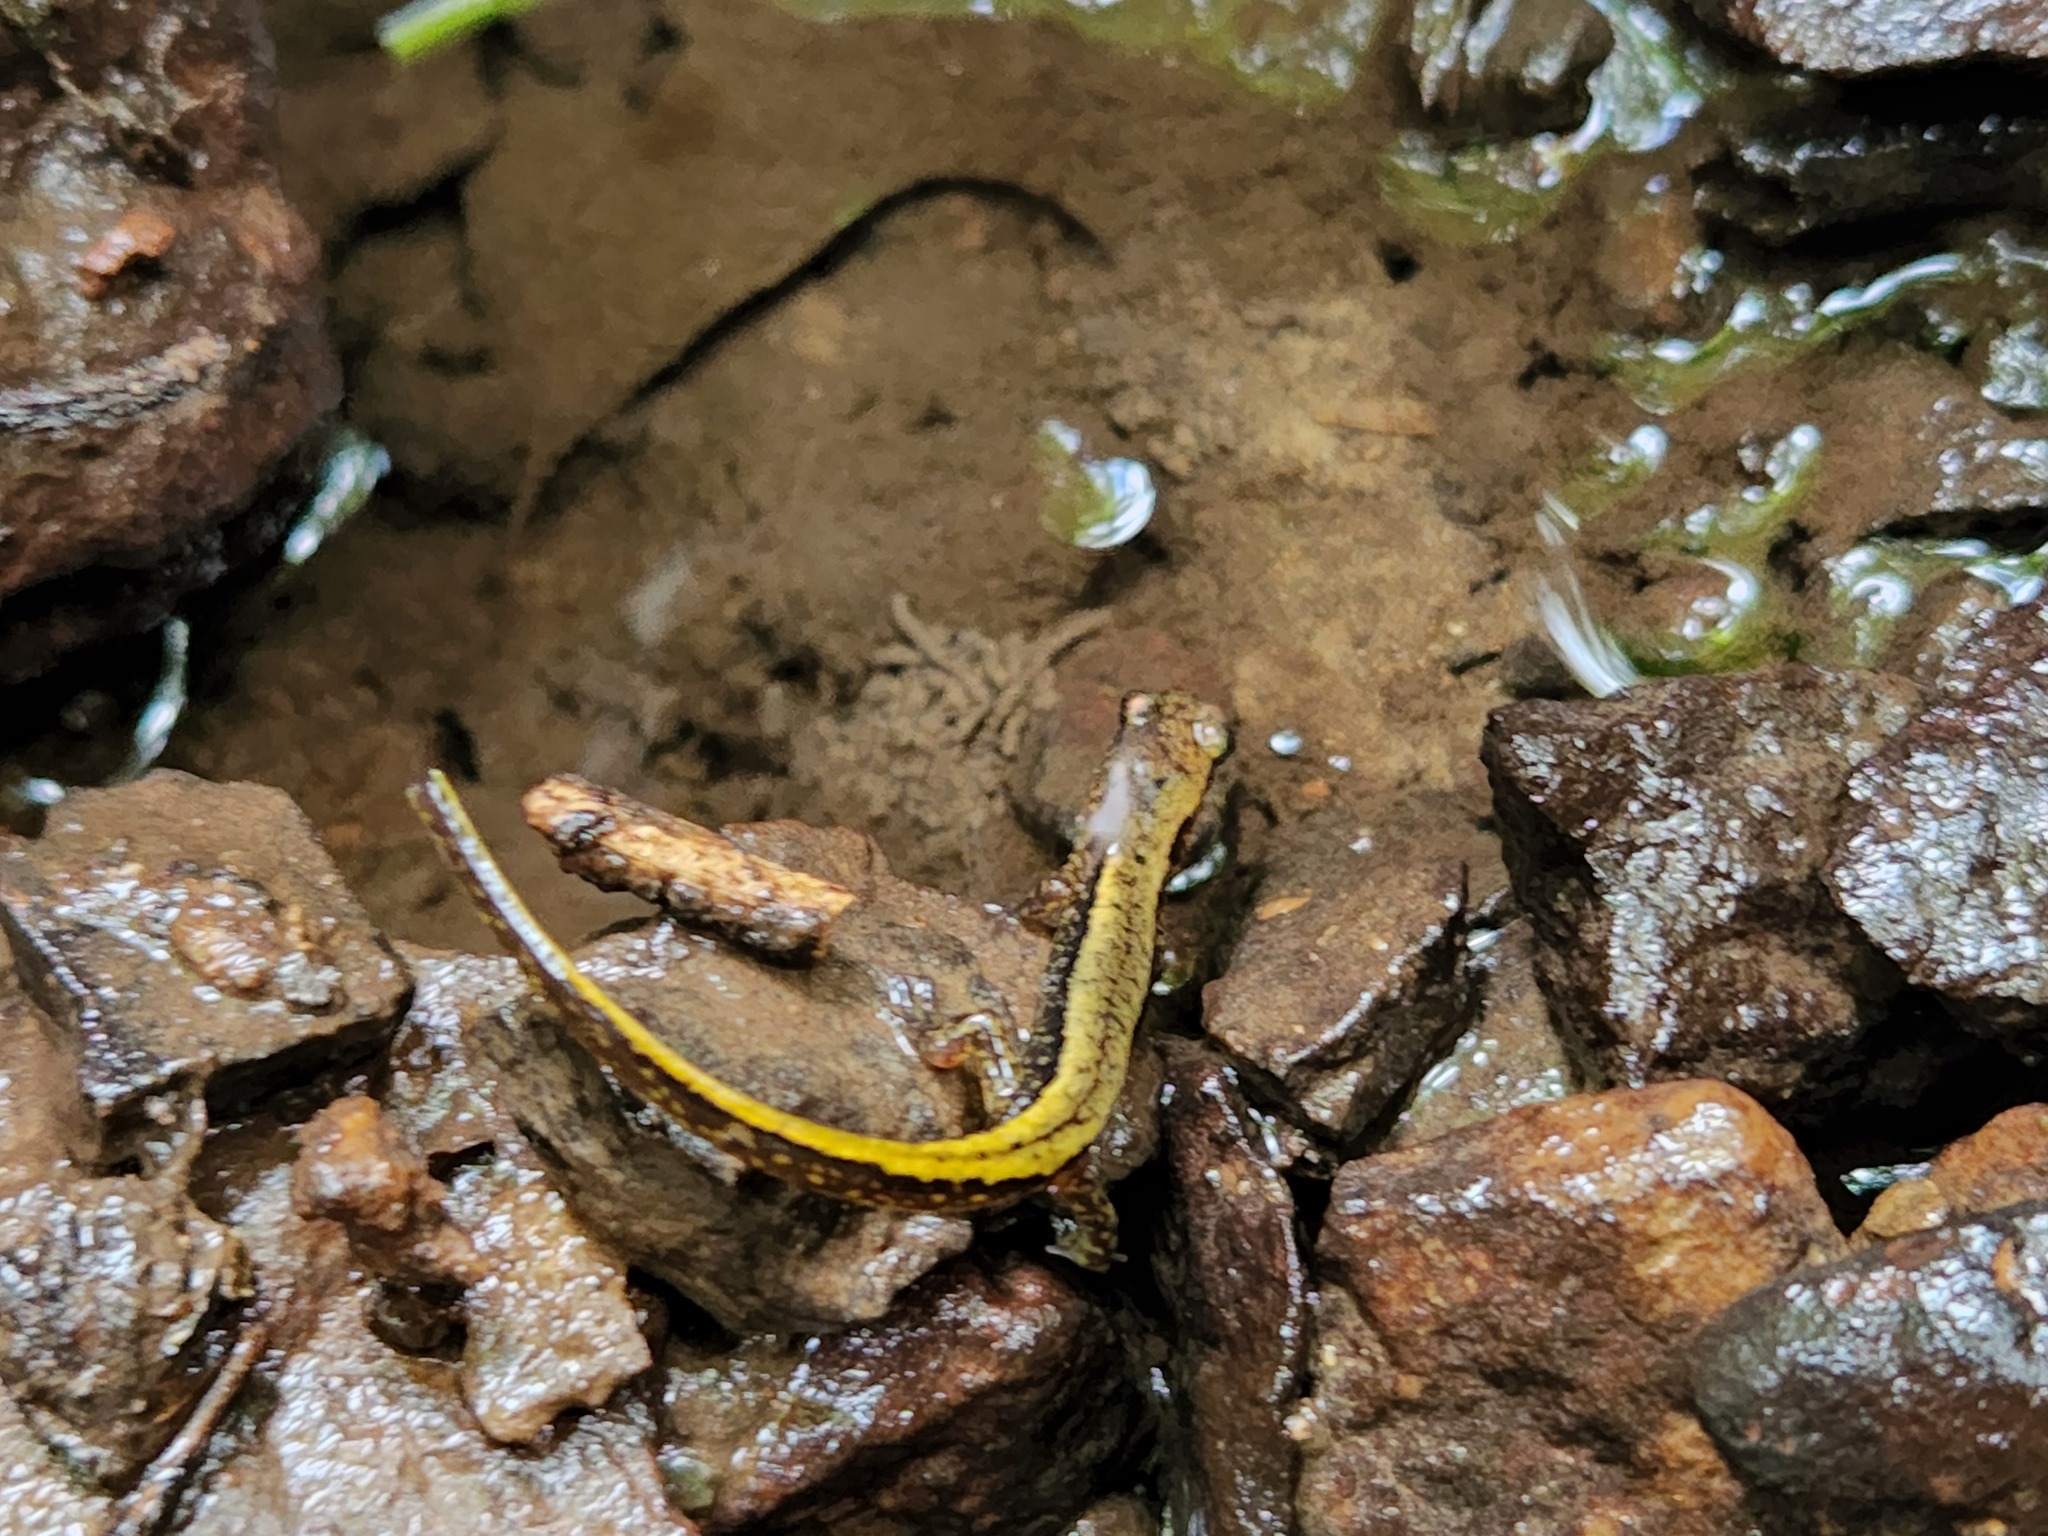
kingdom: Animalia
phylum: Chordata
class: Amphibia
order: Caudata
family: Plethodontidae
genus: Eurycea
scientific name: Eurycea cirrigera
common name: Southern two-lined salamander
